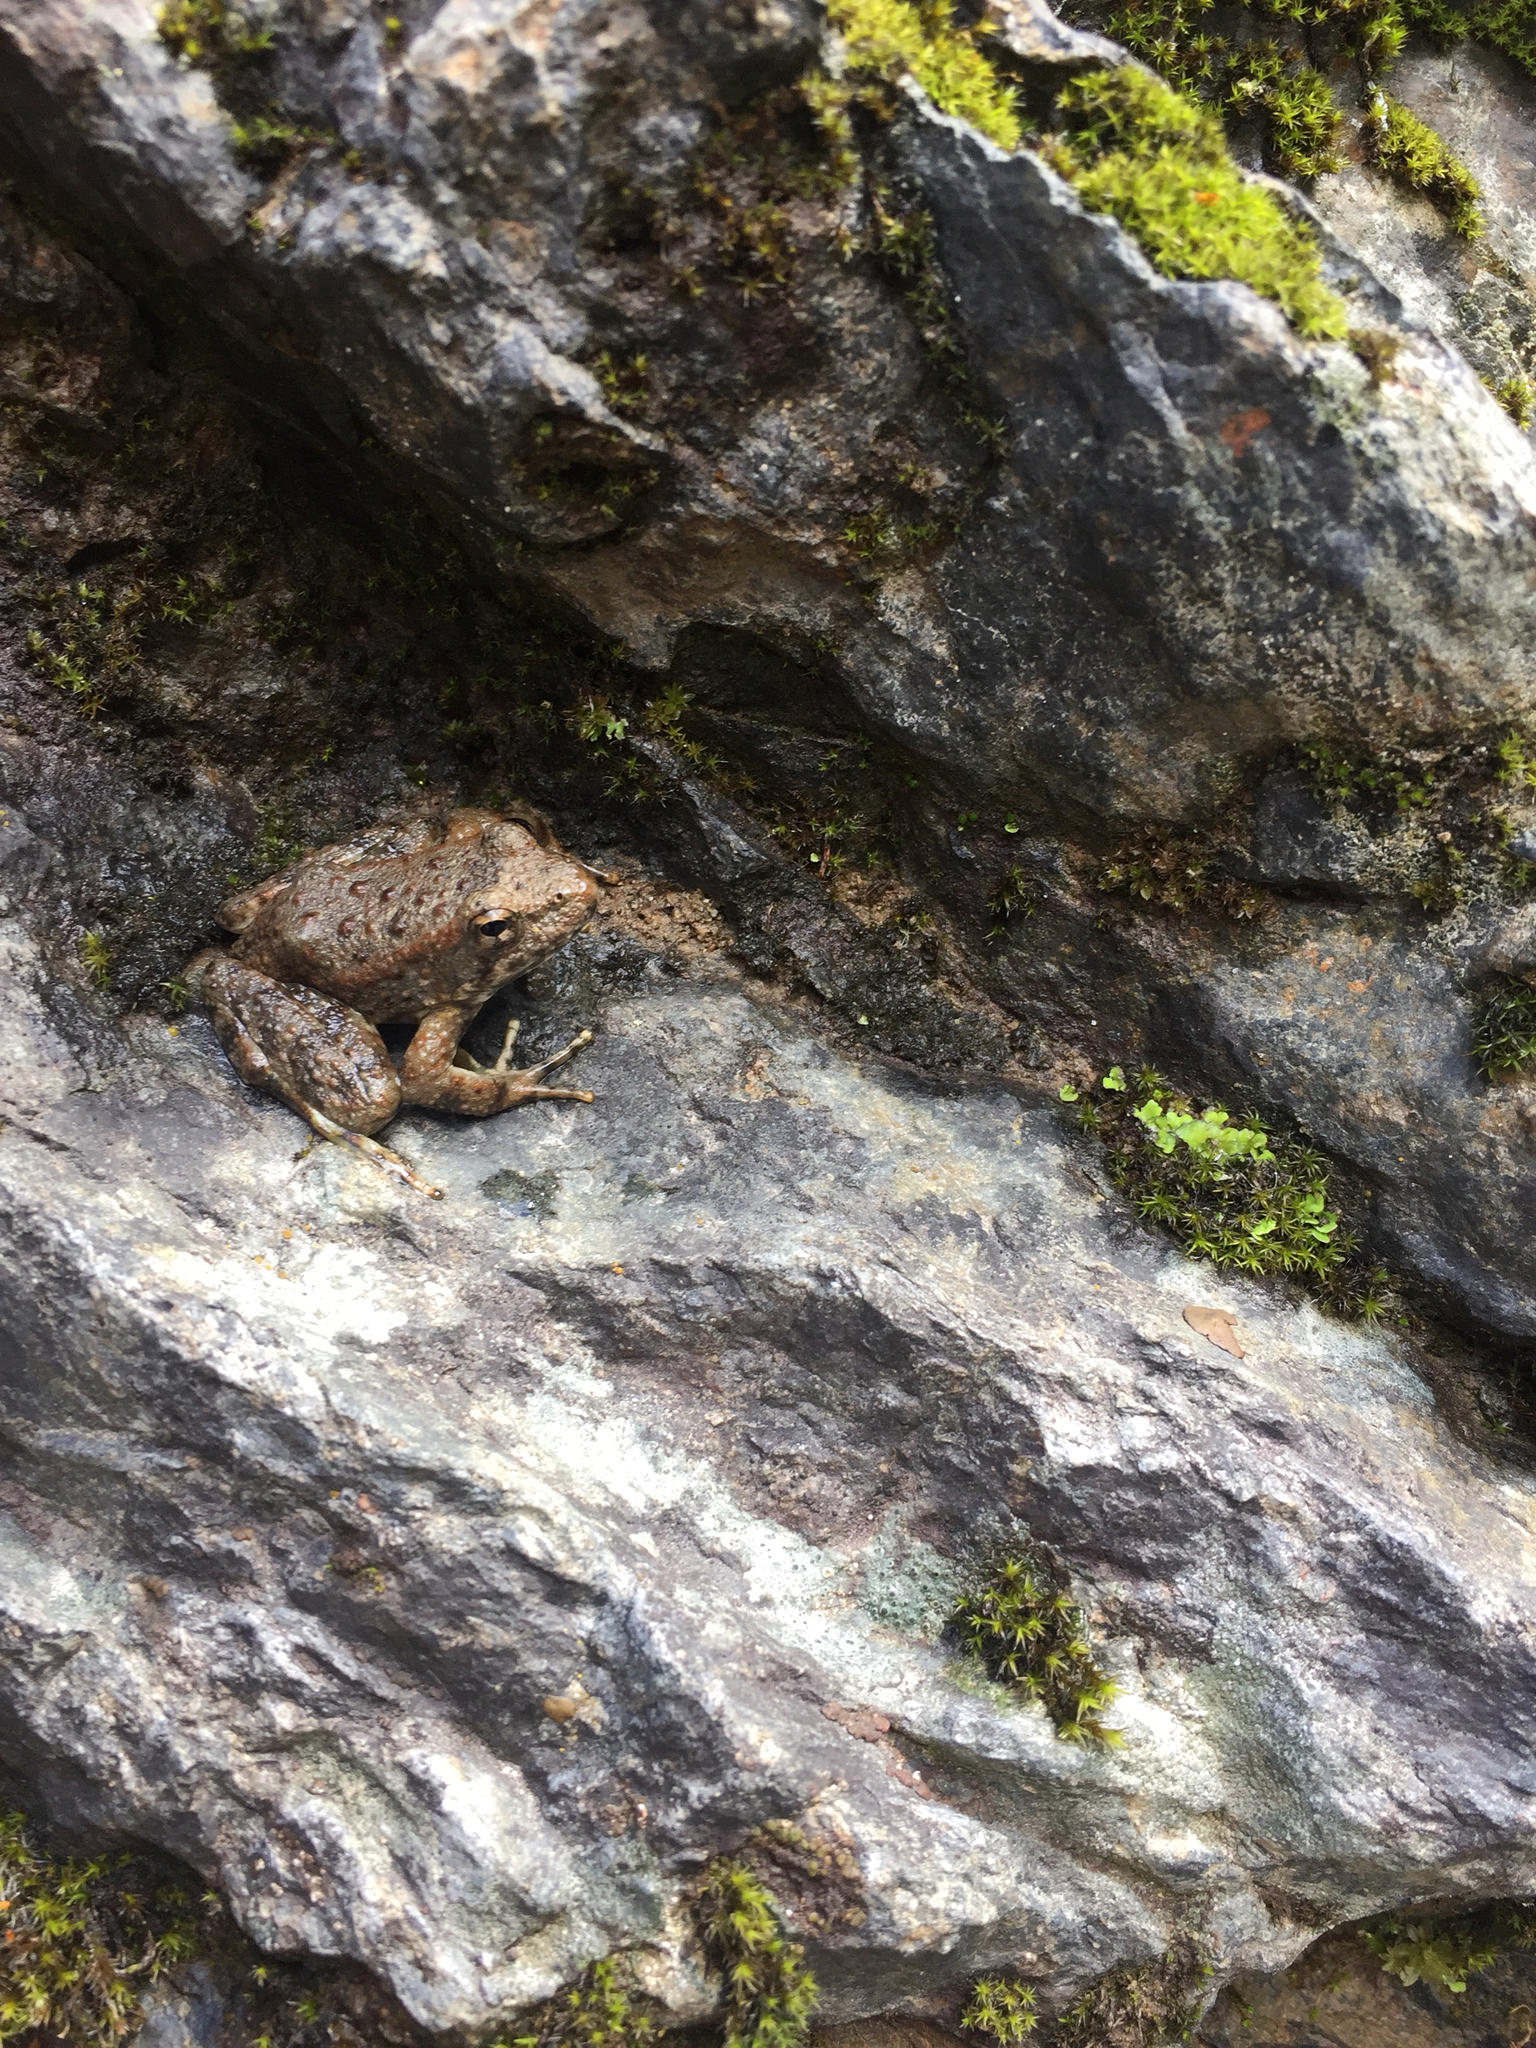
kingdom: Animalia
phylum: Chordata
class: Amphibia
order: Anura
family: Ranidae
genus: Rana
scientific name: Rana boylii
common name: Foothill yellow-legged frog
